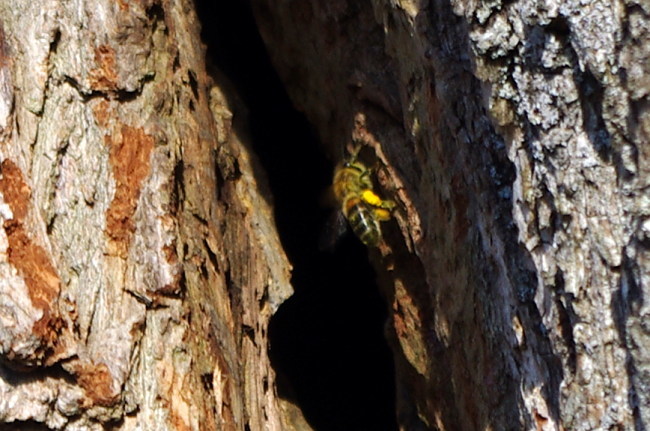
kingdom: Animalia
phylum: Arthropoda
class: Insecta
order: Hymenoptera
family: Apidae
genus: Apis
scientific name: Apis mellifera
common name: Honey bee
